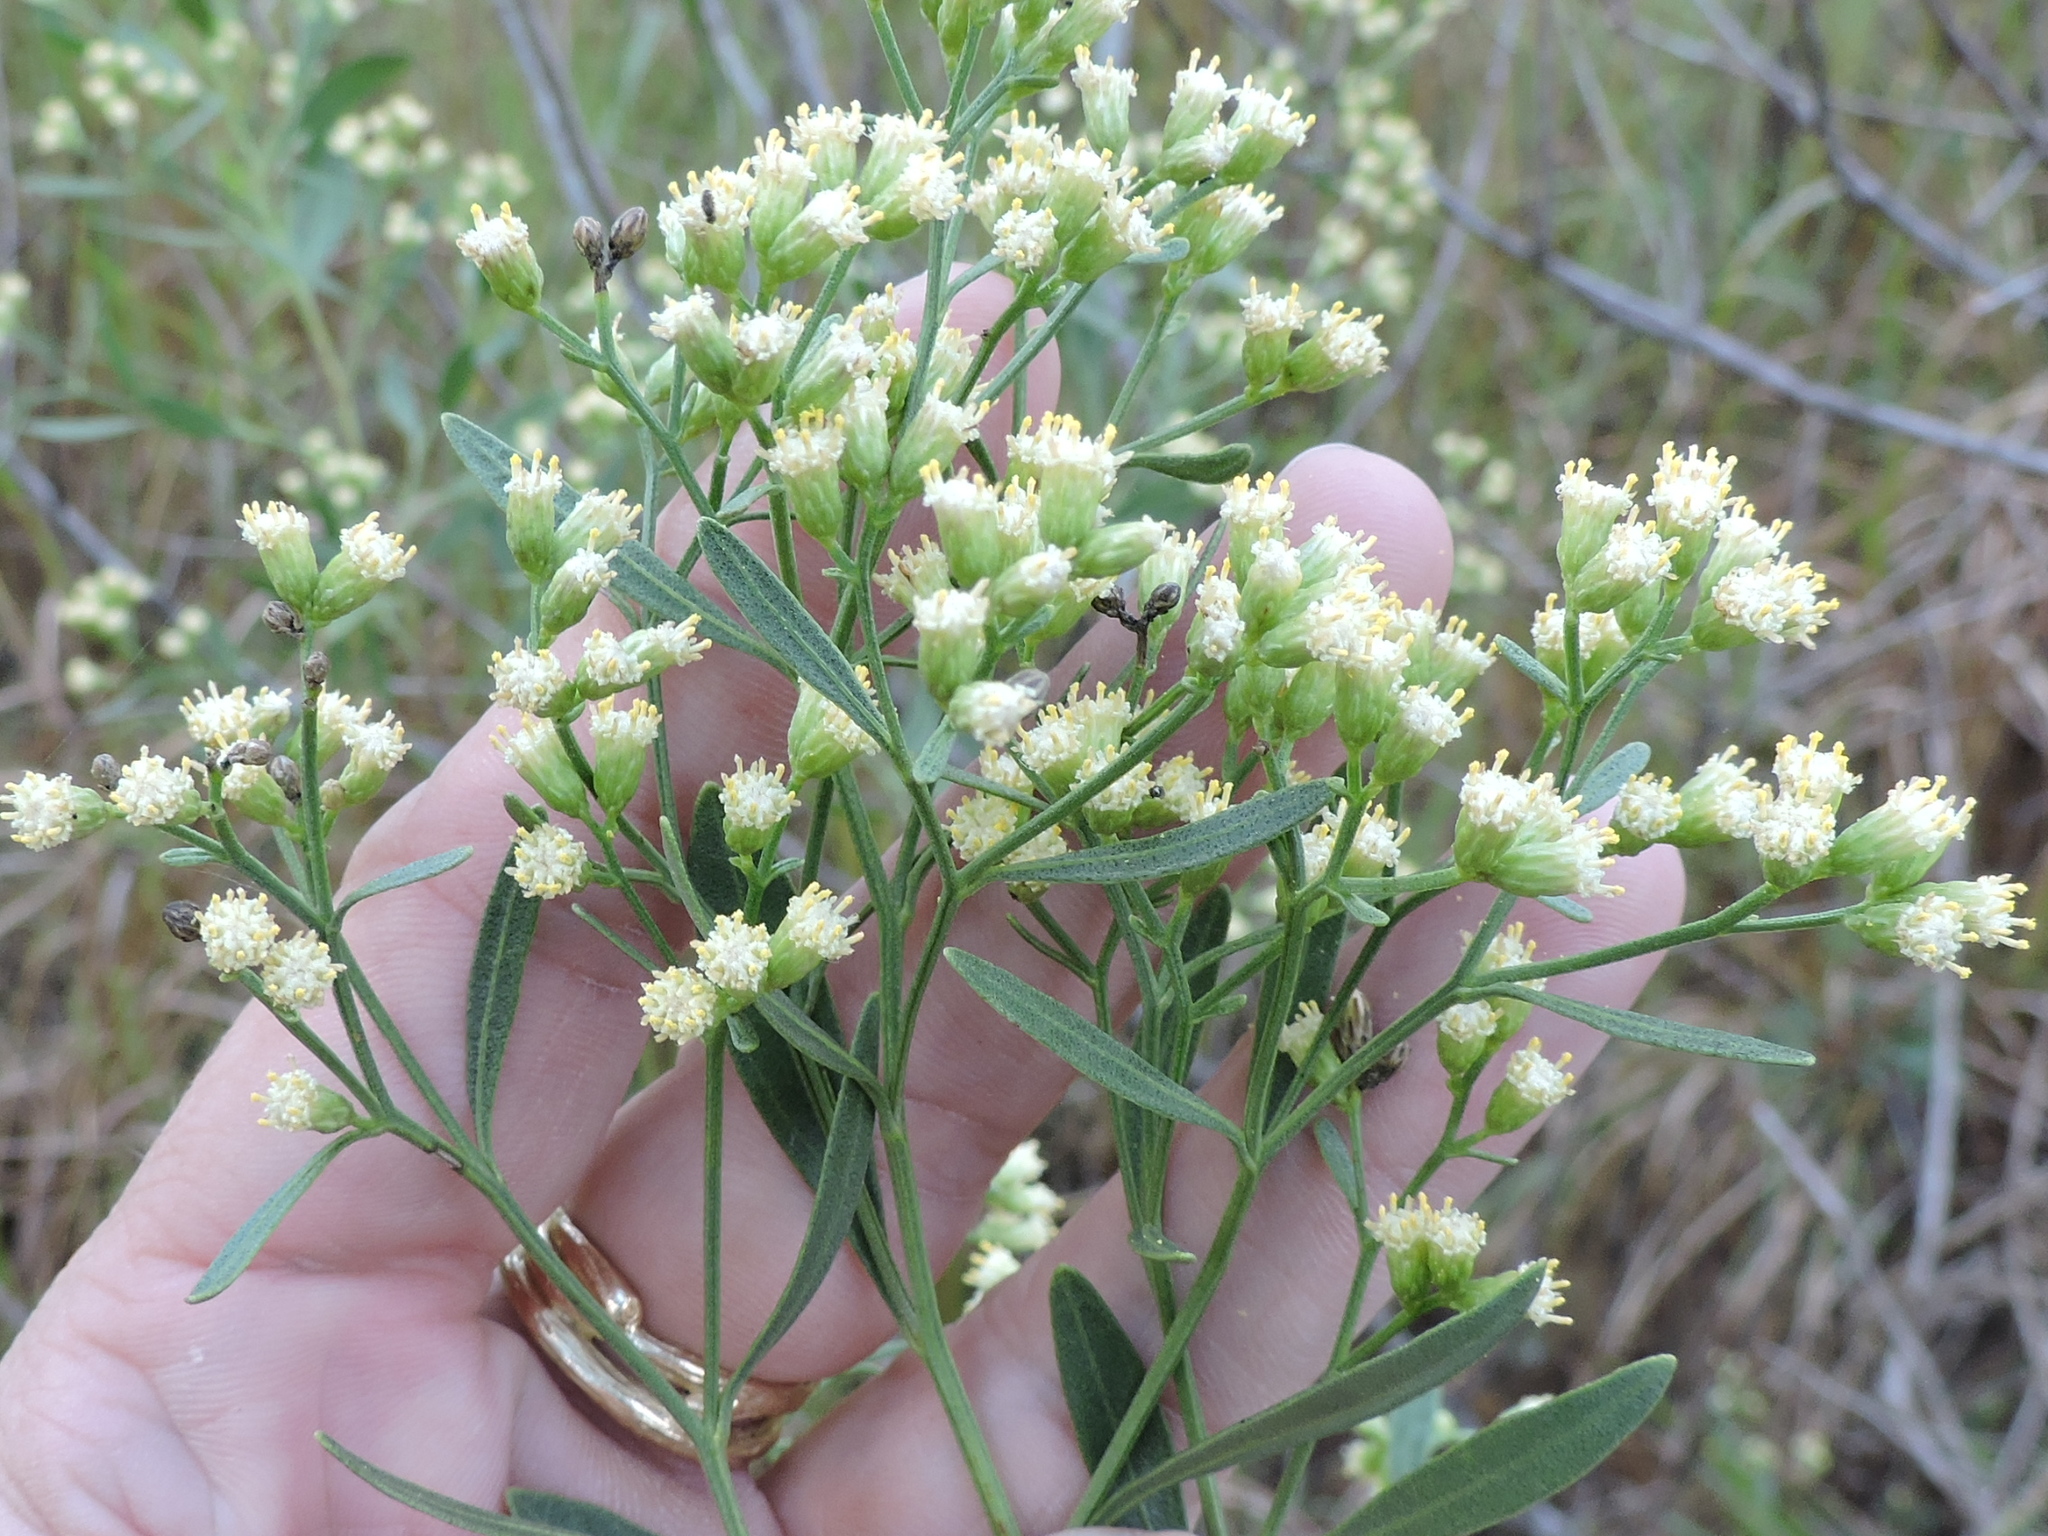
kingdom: Plantae
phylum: Tracheophyta
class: Magnoliopsida
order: Asterales
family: Asteraceae
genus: Baccharis
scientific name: Baccharis halimifolia
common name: Eastern baccharis
